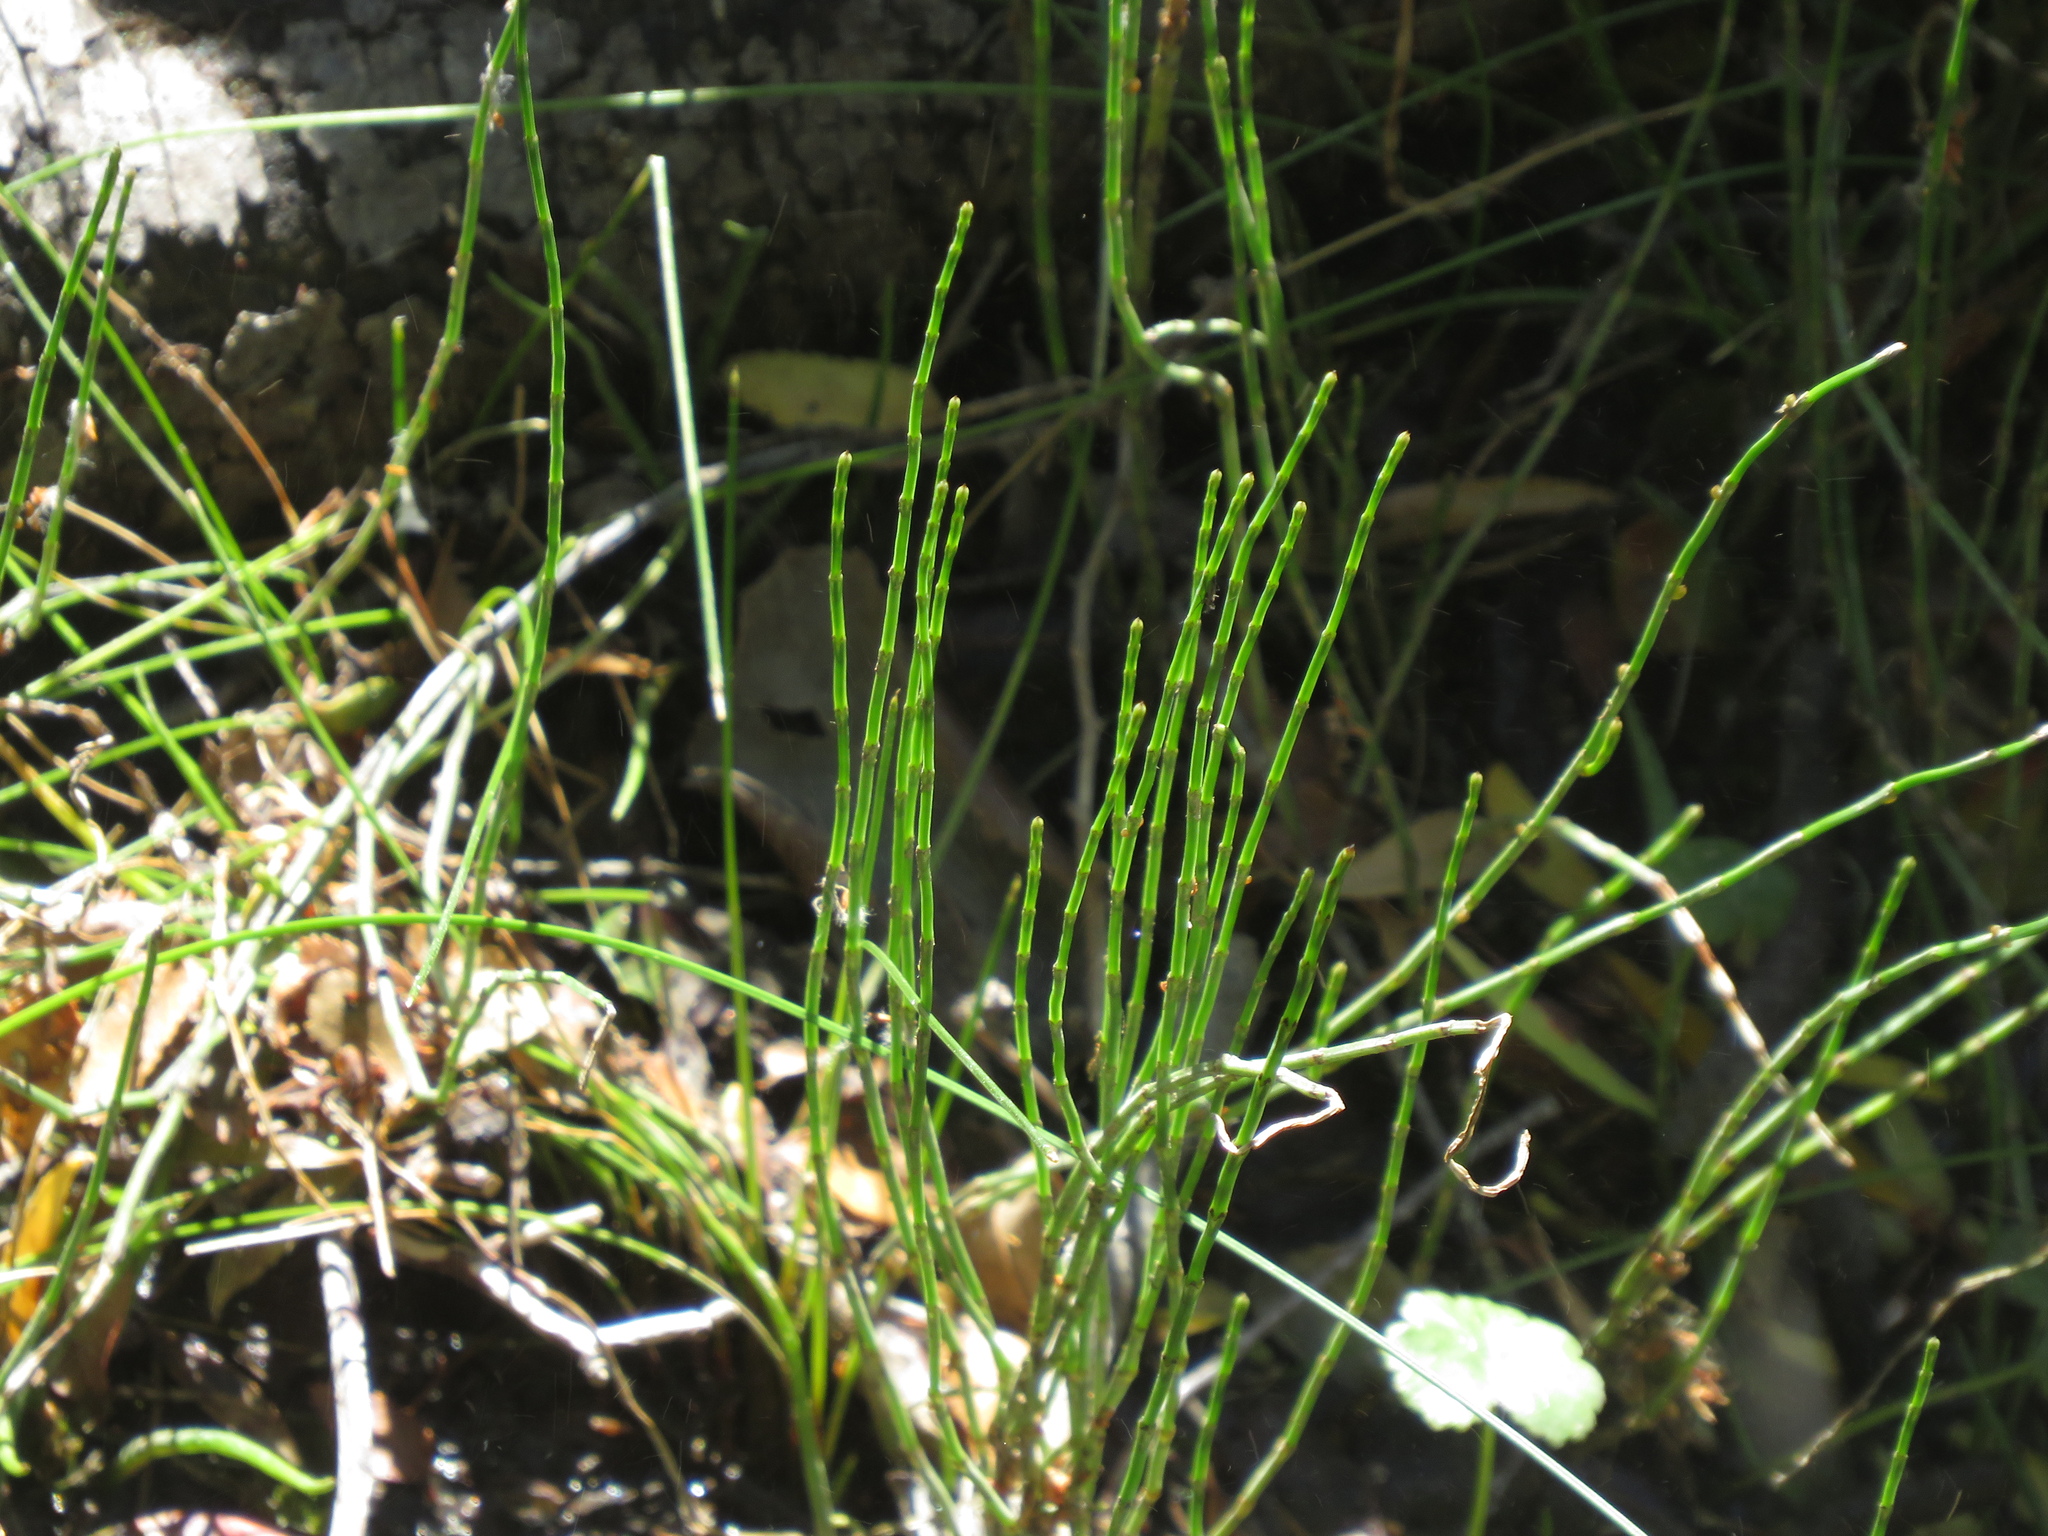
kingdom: Plantae
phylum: Tracheophyta
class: Polypodiopsida
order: Equisetales
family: Equisetaceae
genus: Equisetum
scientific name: Equisetum bogotense
